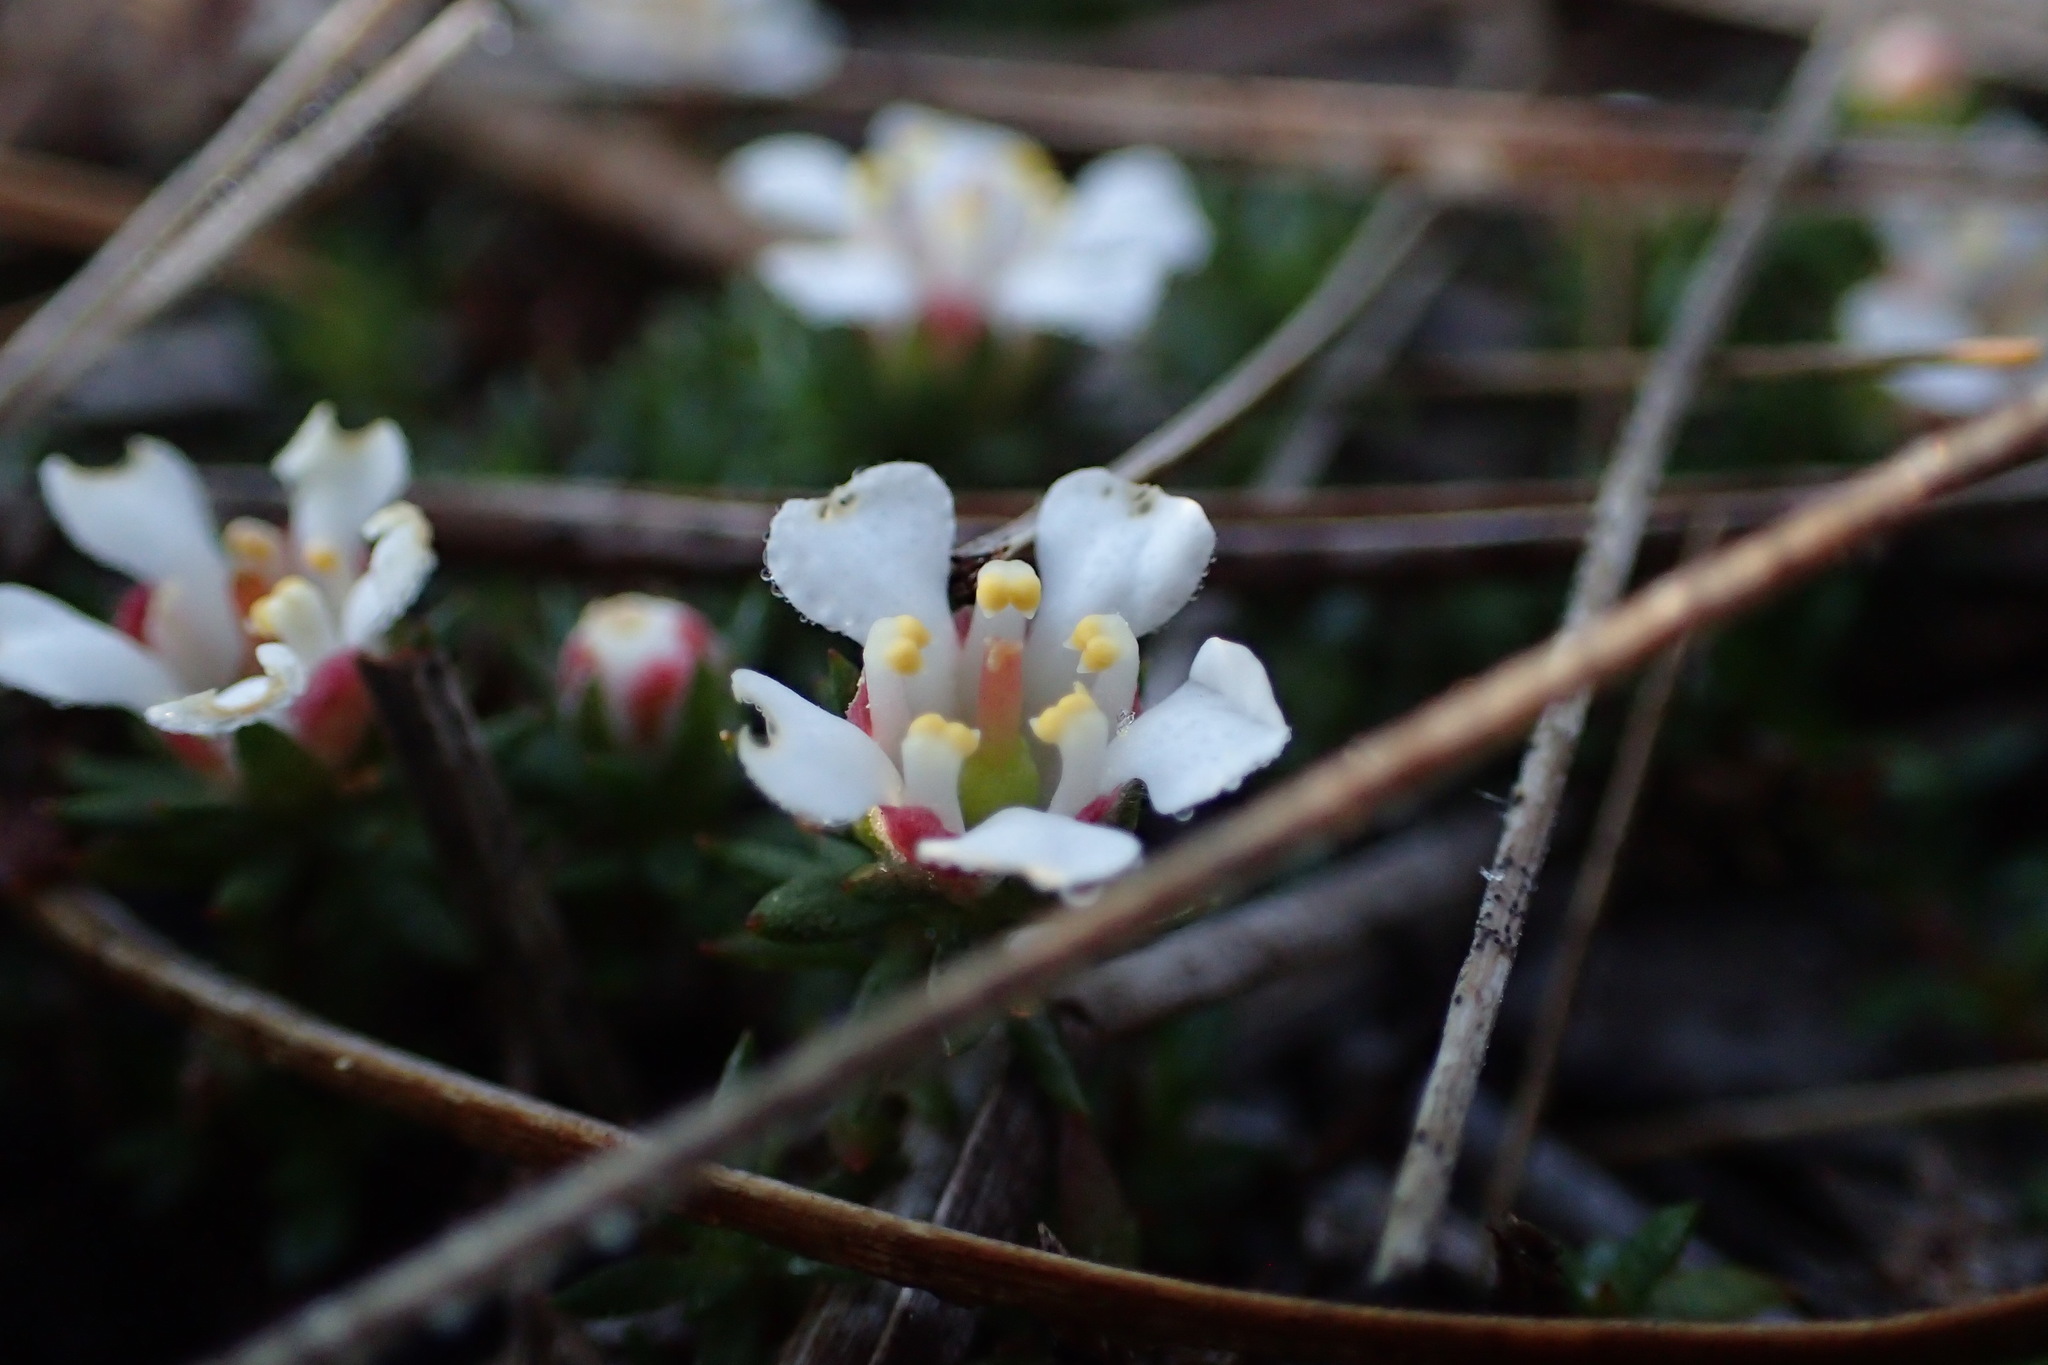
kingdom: Plantae
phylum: Tracheophyta
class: Magnoliopsida
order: Ericales
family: Diapensiaceae
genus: Pyxidanthera
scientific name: Pyxidanthera barbulata
